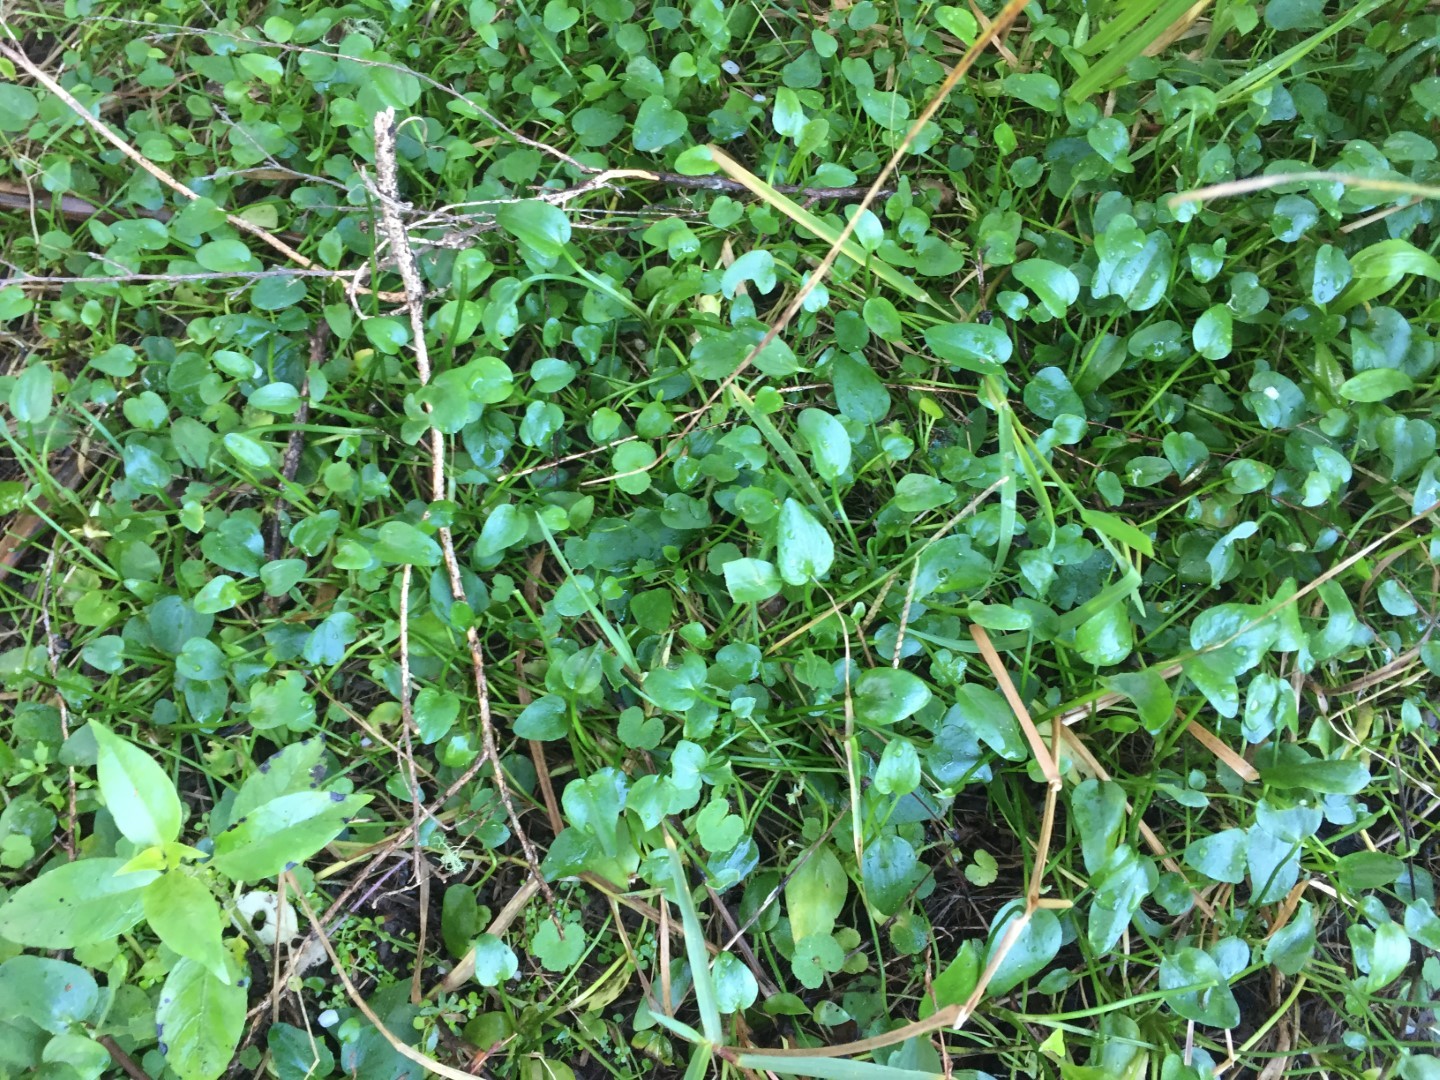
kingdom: Plantae
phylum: Tracheophyta
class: Magnoliopsida
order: Ranunculales
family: Ranunculaceae
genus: Ranunculus
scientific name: Ranunculus flammula
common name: Lesser spearwort
